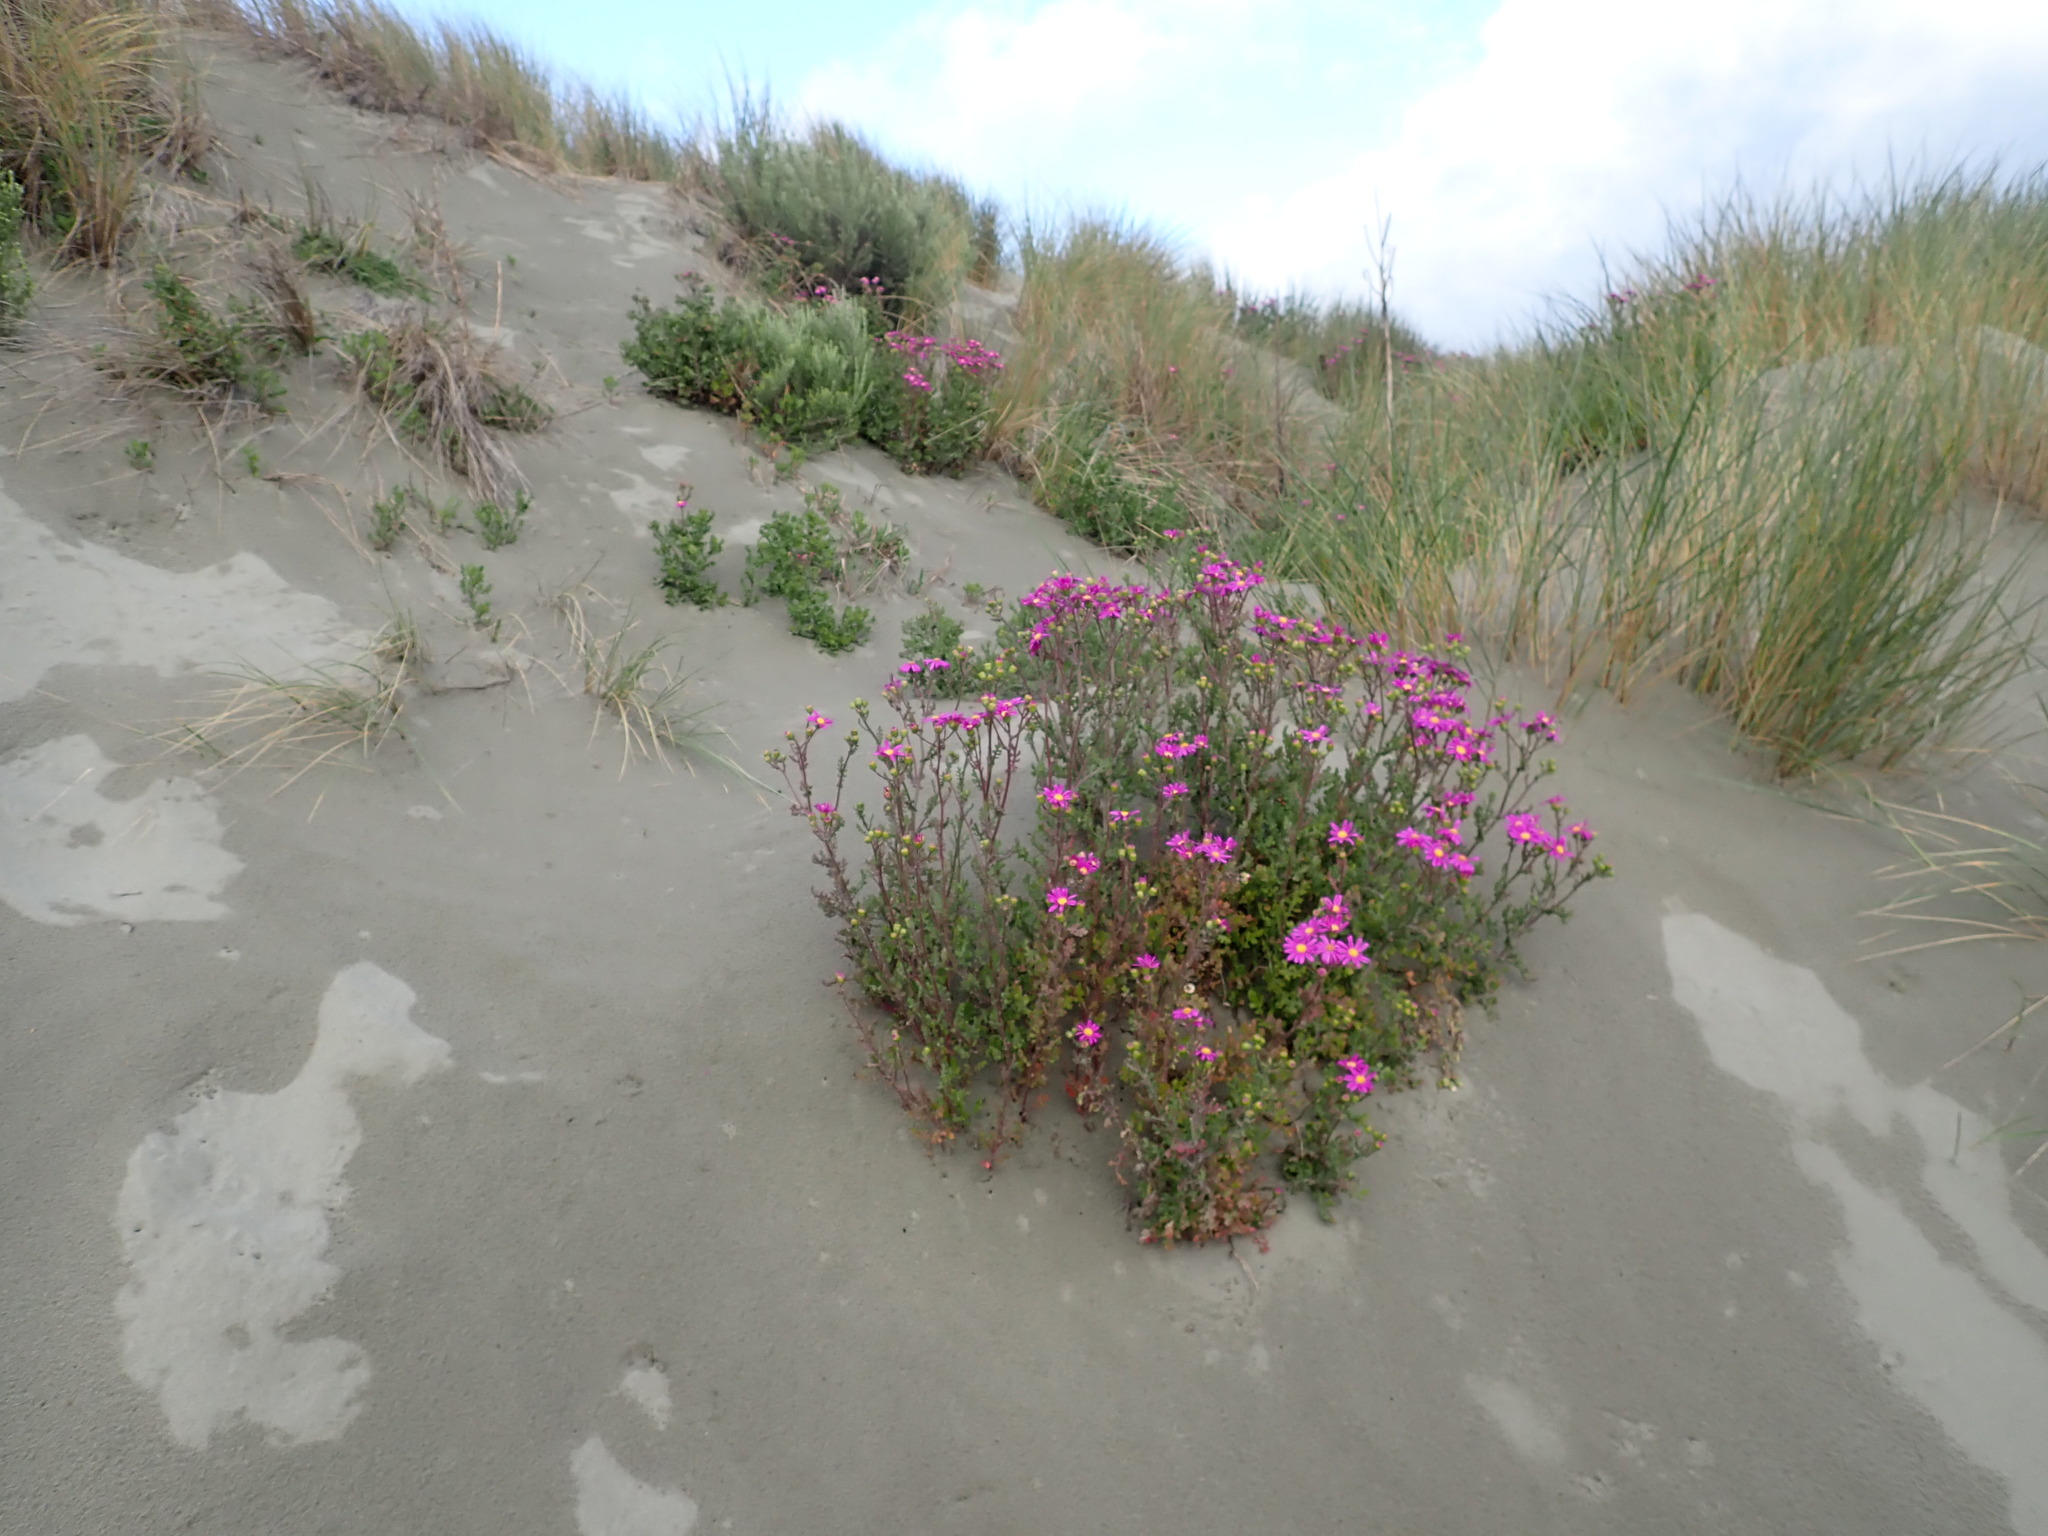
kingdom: Plantae
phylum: Tracheophyta
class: Magnoliopsida
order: Asterales
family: Asteraceae
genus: Senecio
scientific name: Senecio elegans
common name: Purple groundsel
